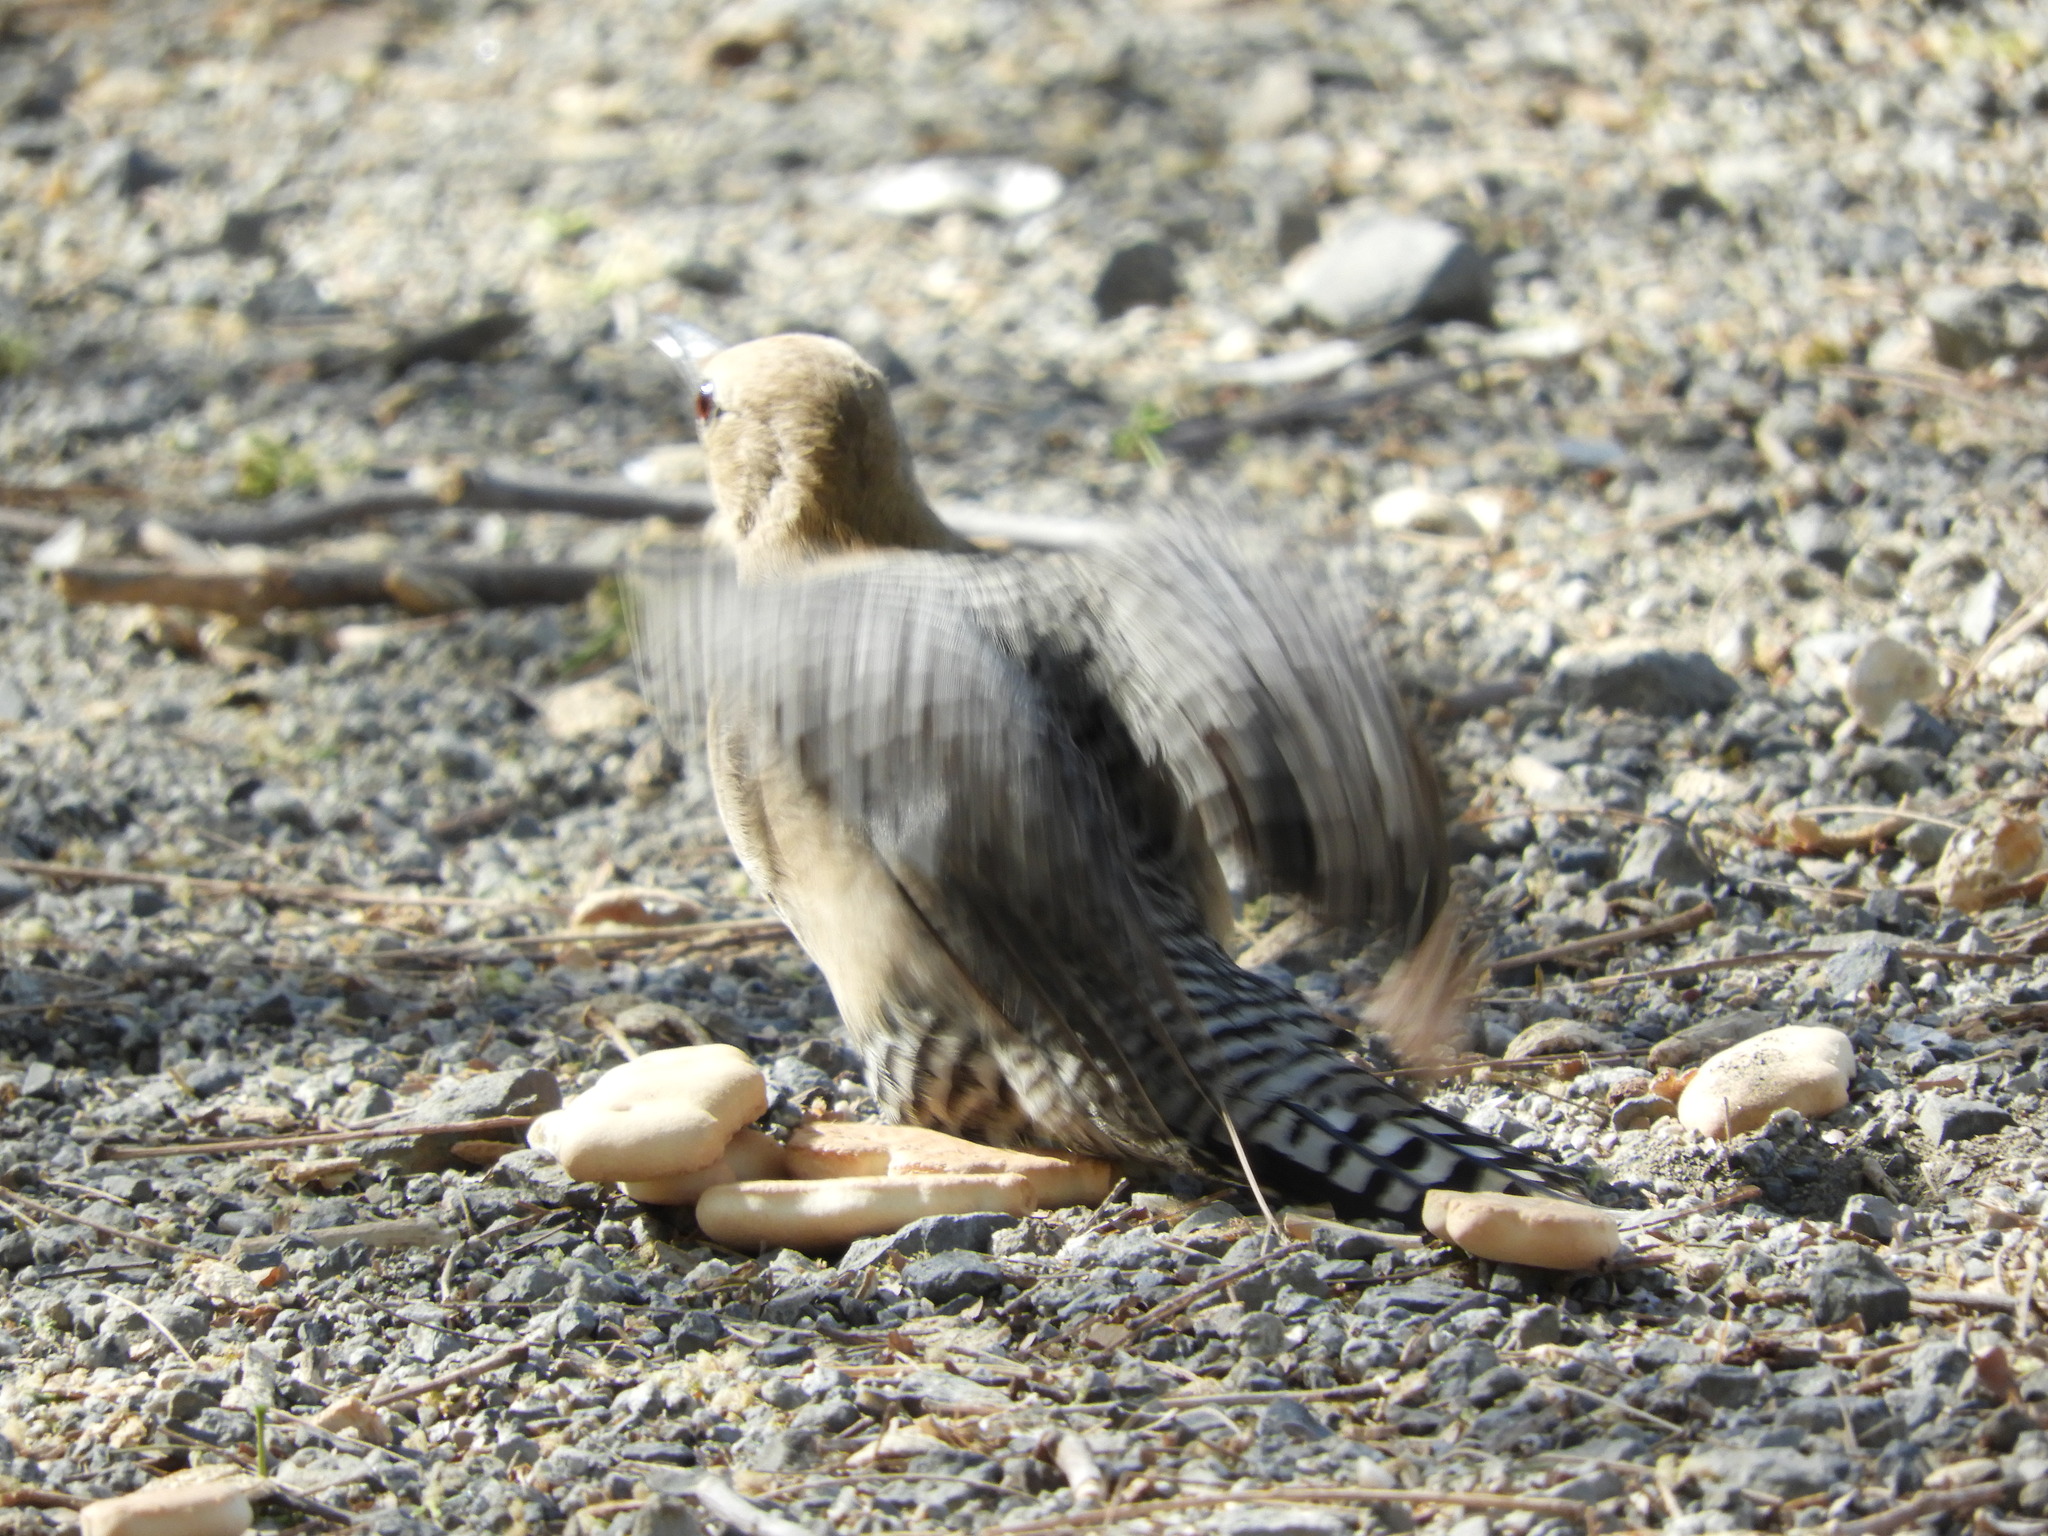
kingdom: Animalia
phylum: Chordata
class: Aves
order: Piciformes
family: Picidae
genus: Melanerpes
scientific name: Melanerpes uropygialis
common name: Gila woodpecker
